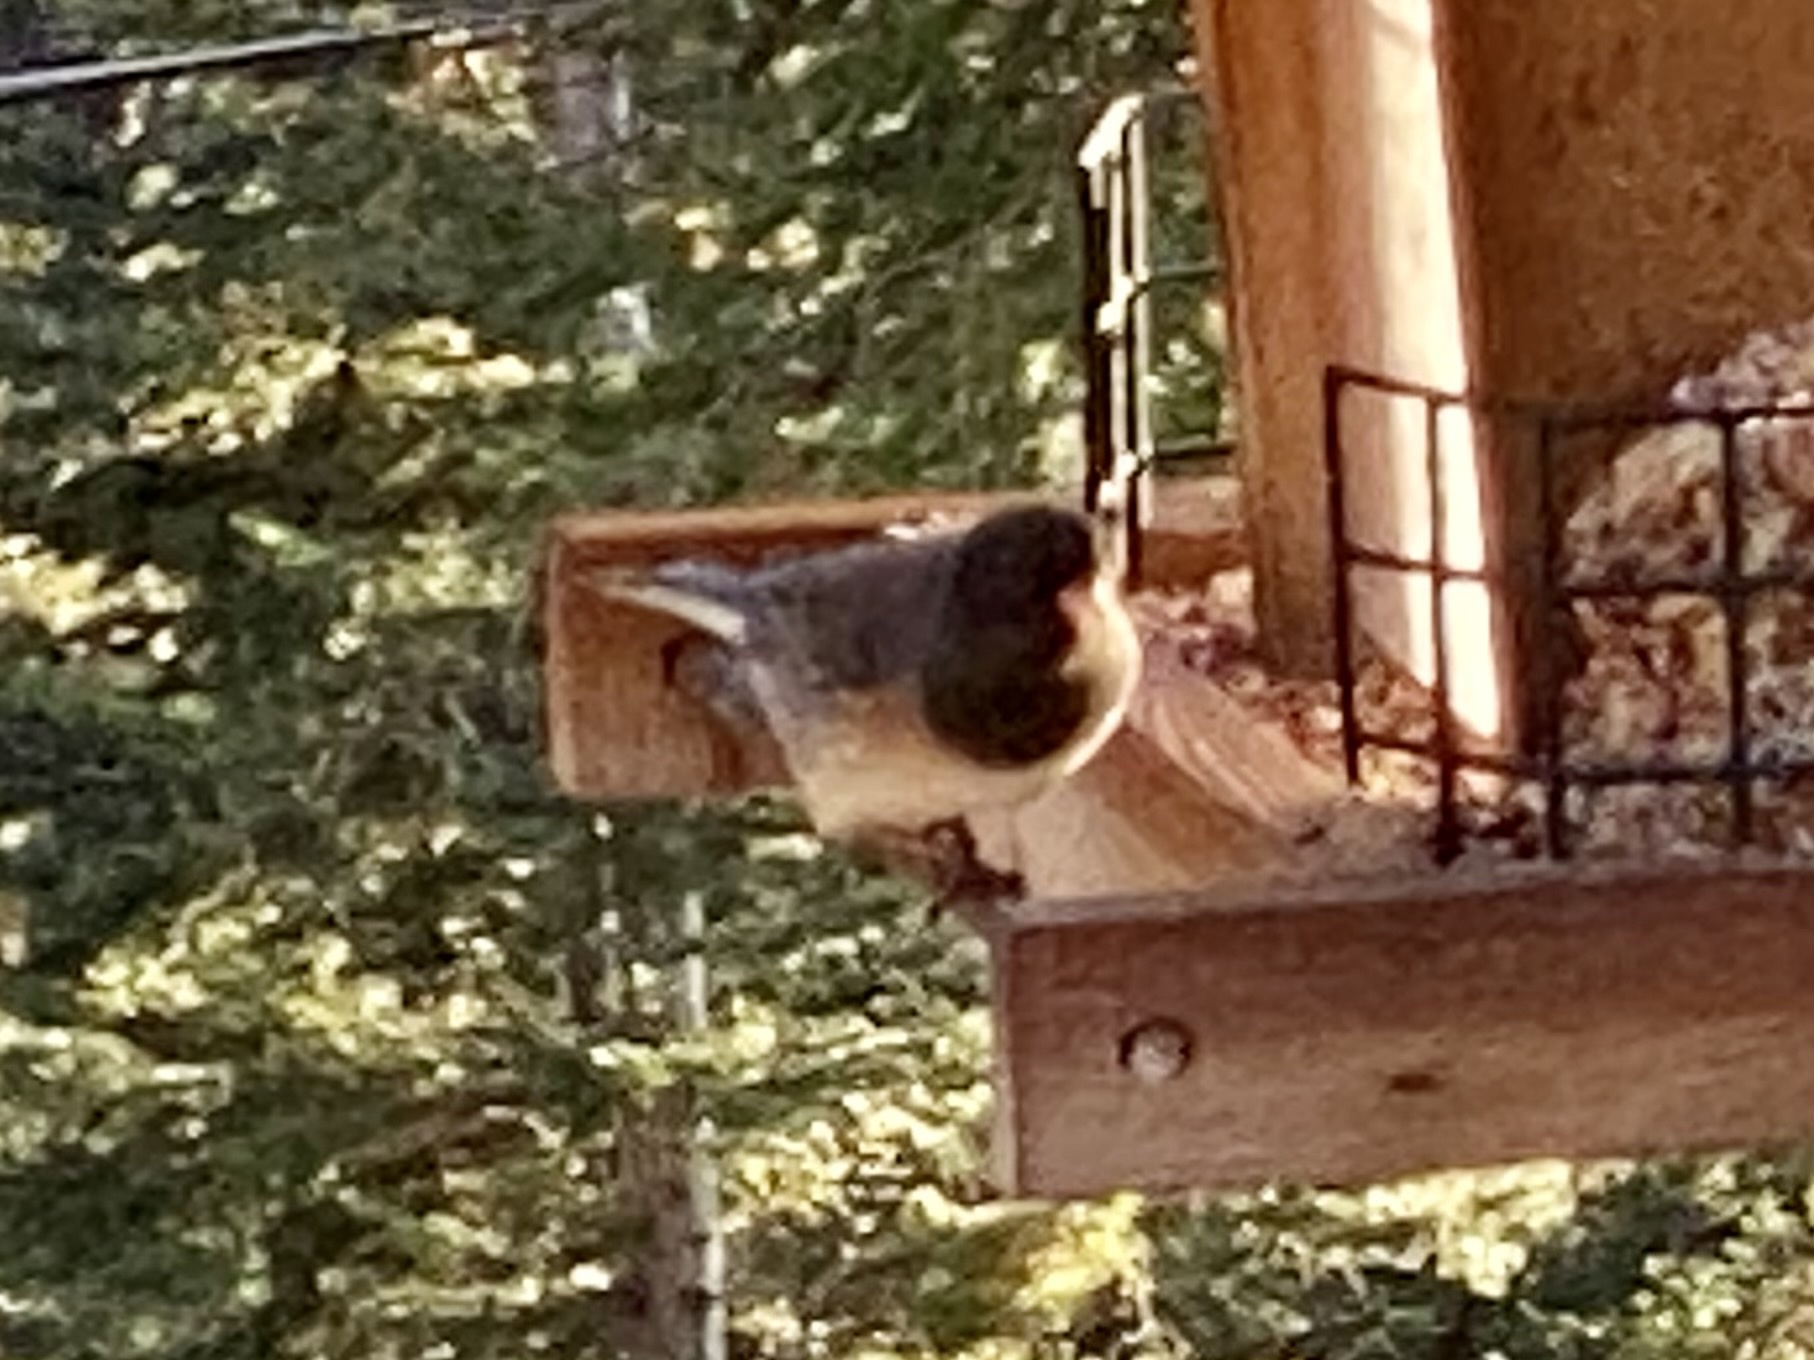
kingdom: Animalia
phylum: Chordata
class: Aves
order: Passeriformes
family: Passerellidae
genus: Junco
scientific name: Junco hyemalis
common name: Dark-eyed junco
